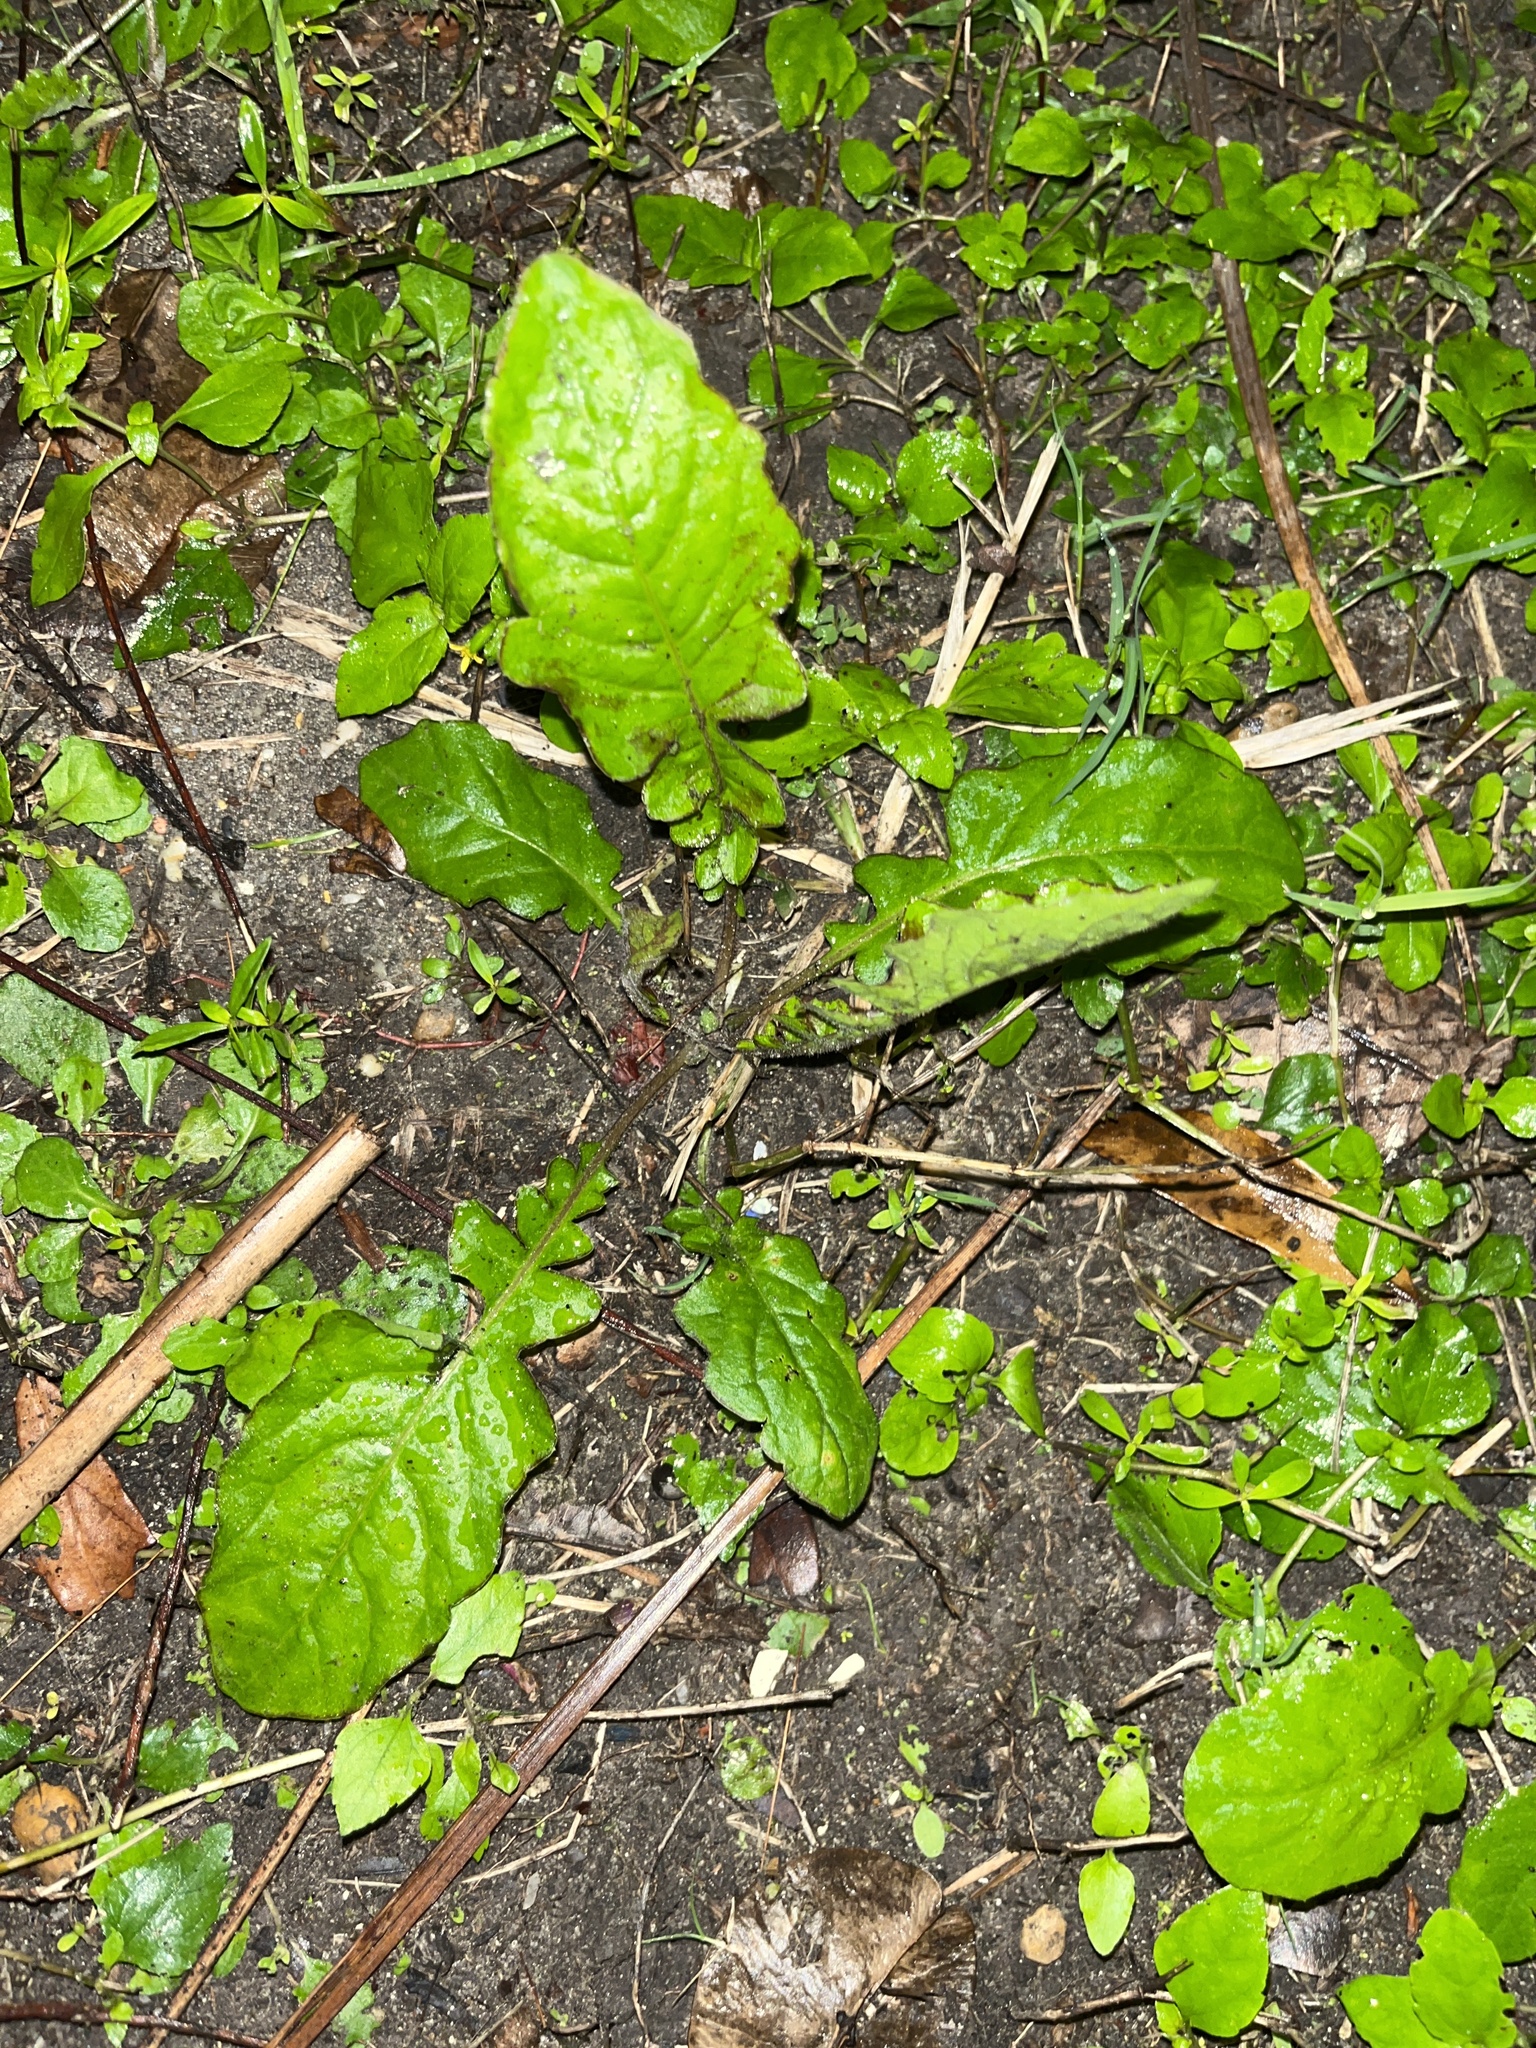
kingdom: Plantae
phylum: Tracheophyta
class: Magnoliopsida
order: Asterales
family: Asteraceae
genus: Youngia
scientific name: Youngia japonica
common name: Oriental false hawksbeard
